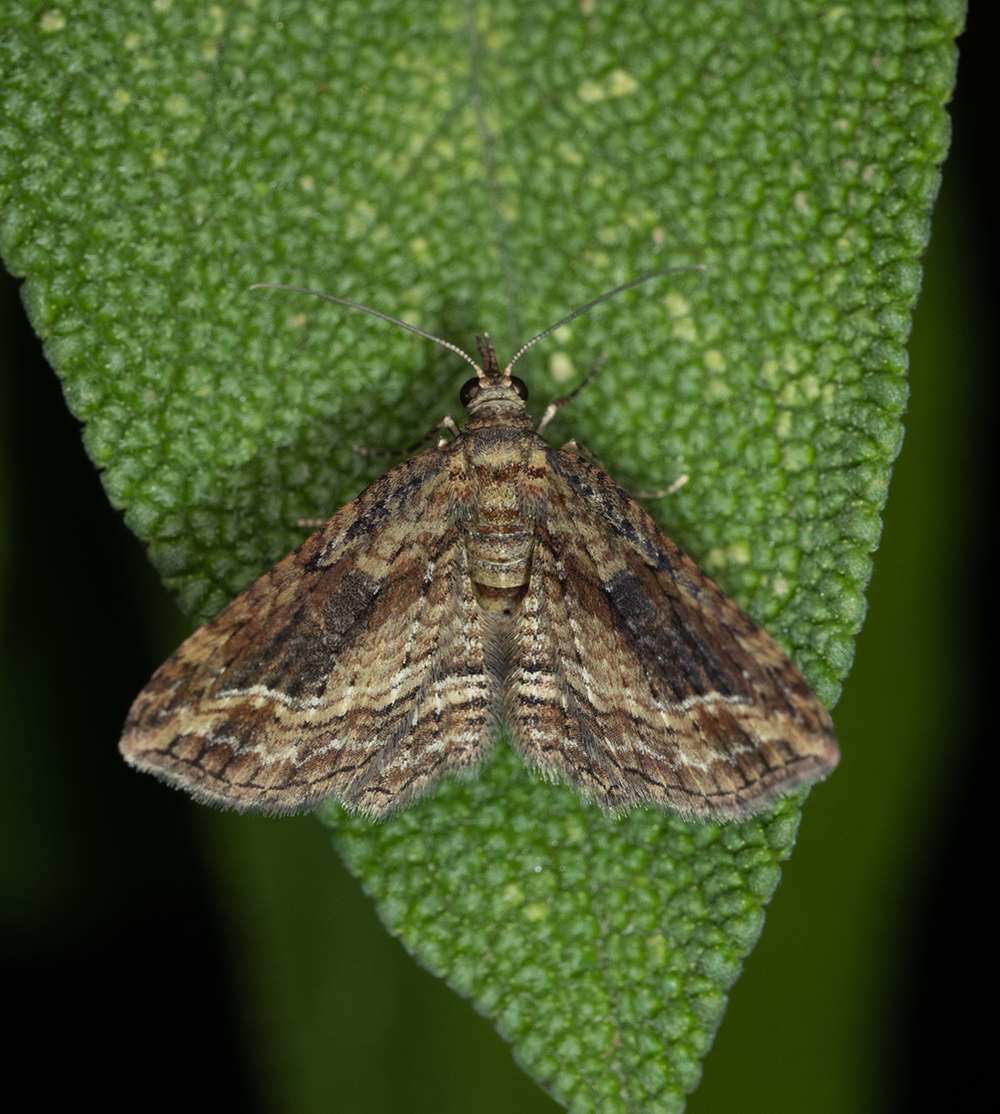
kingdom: Animalia
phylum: Arthropoda
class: Insecta
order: Lepidoptera
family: Geometridae
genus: Chloroclystis
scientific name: Chloroclystis filata
